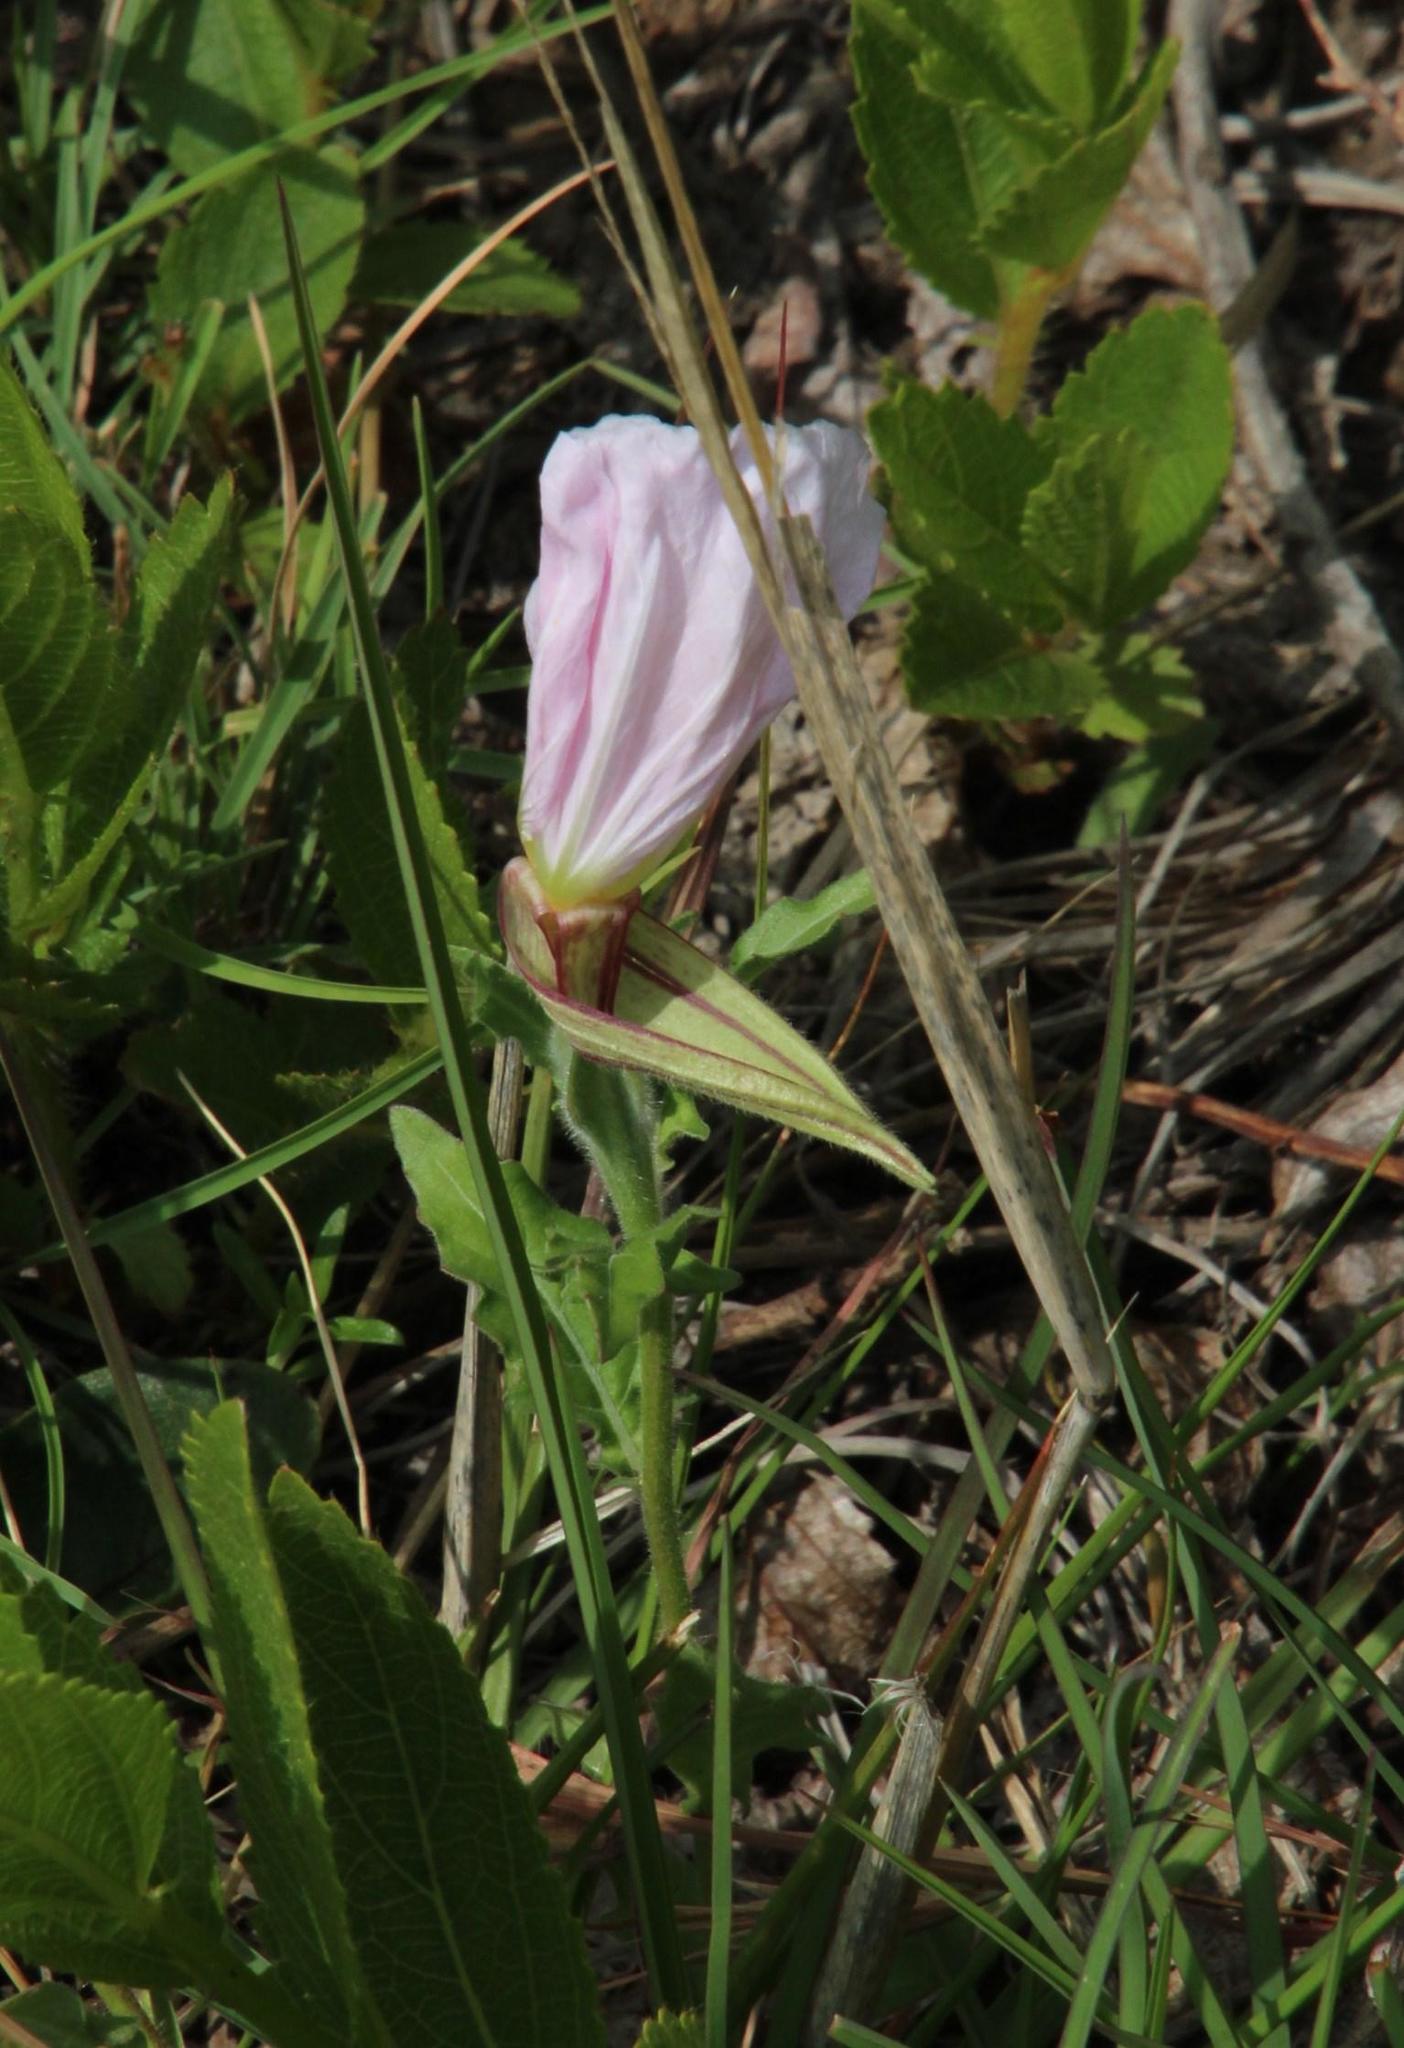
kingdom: Plantae
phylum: Tracheophyta
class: Magnoliopsida
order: Myrtales
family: Onagraceae
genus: Oenothera
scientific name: Oenothera tetraptera
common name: Four-wing evening-primrose
